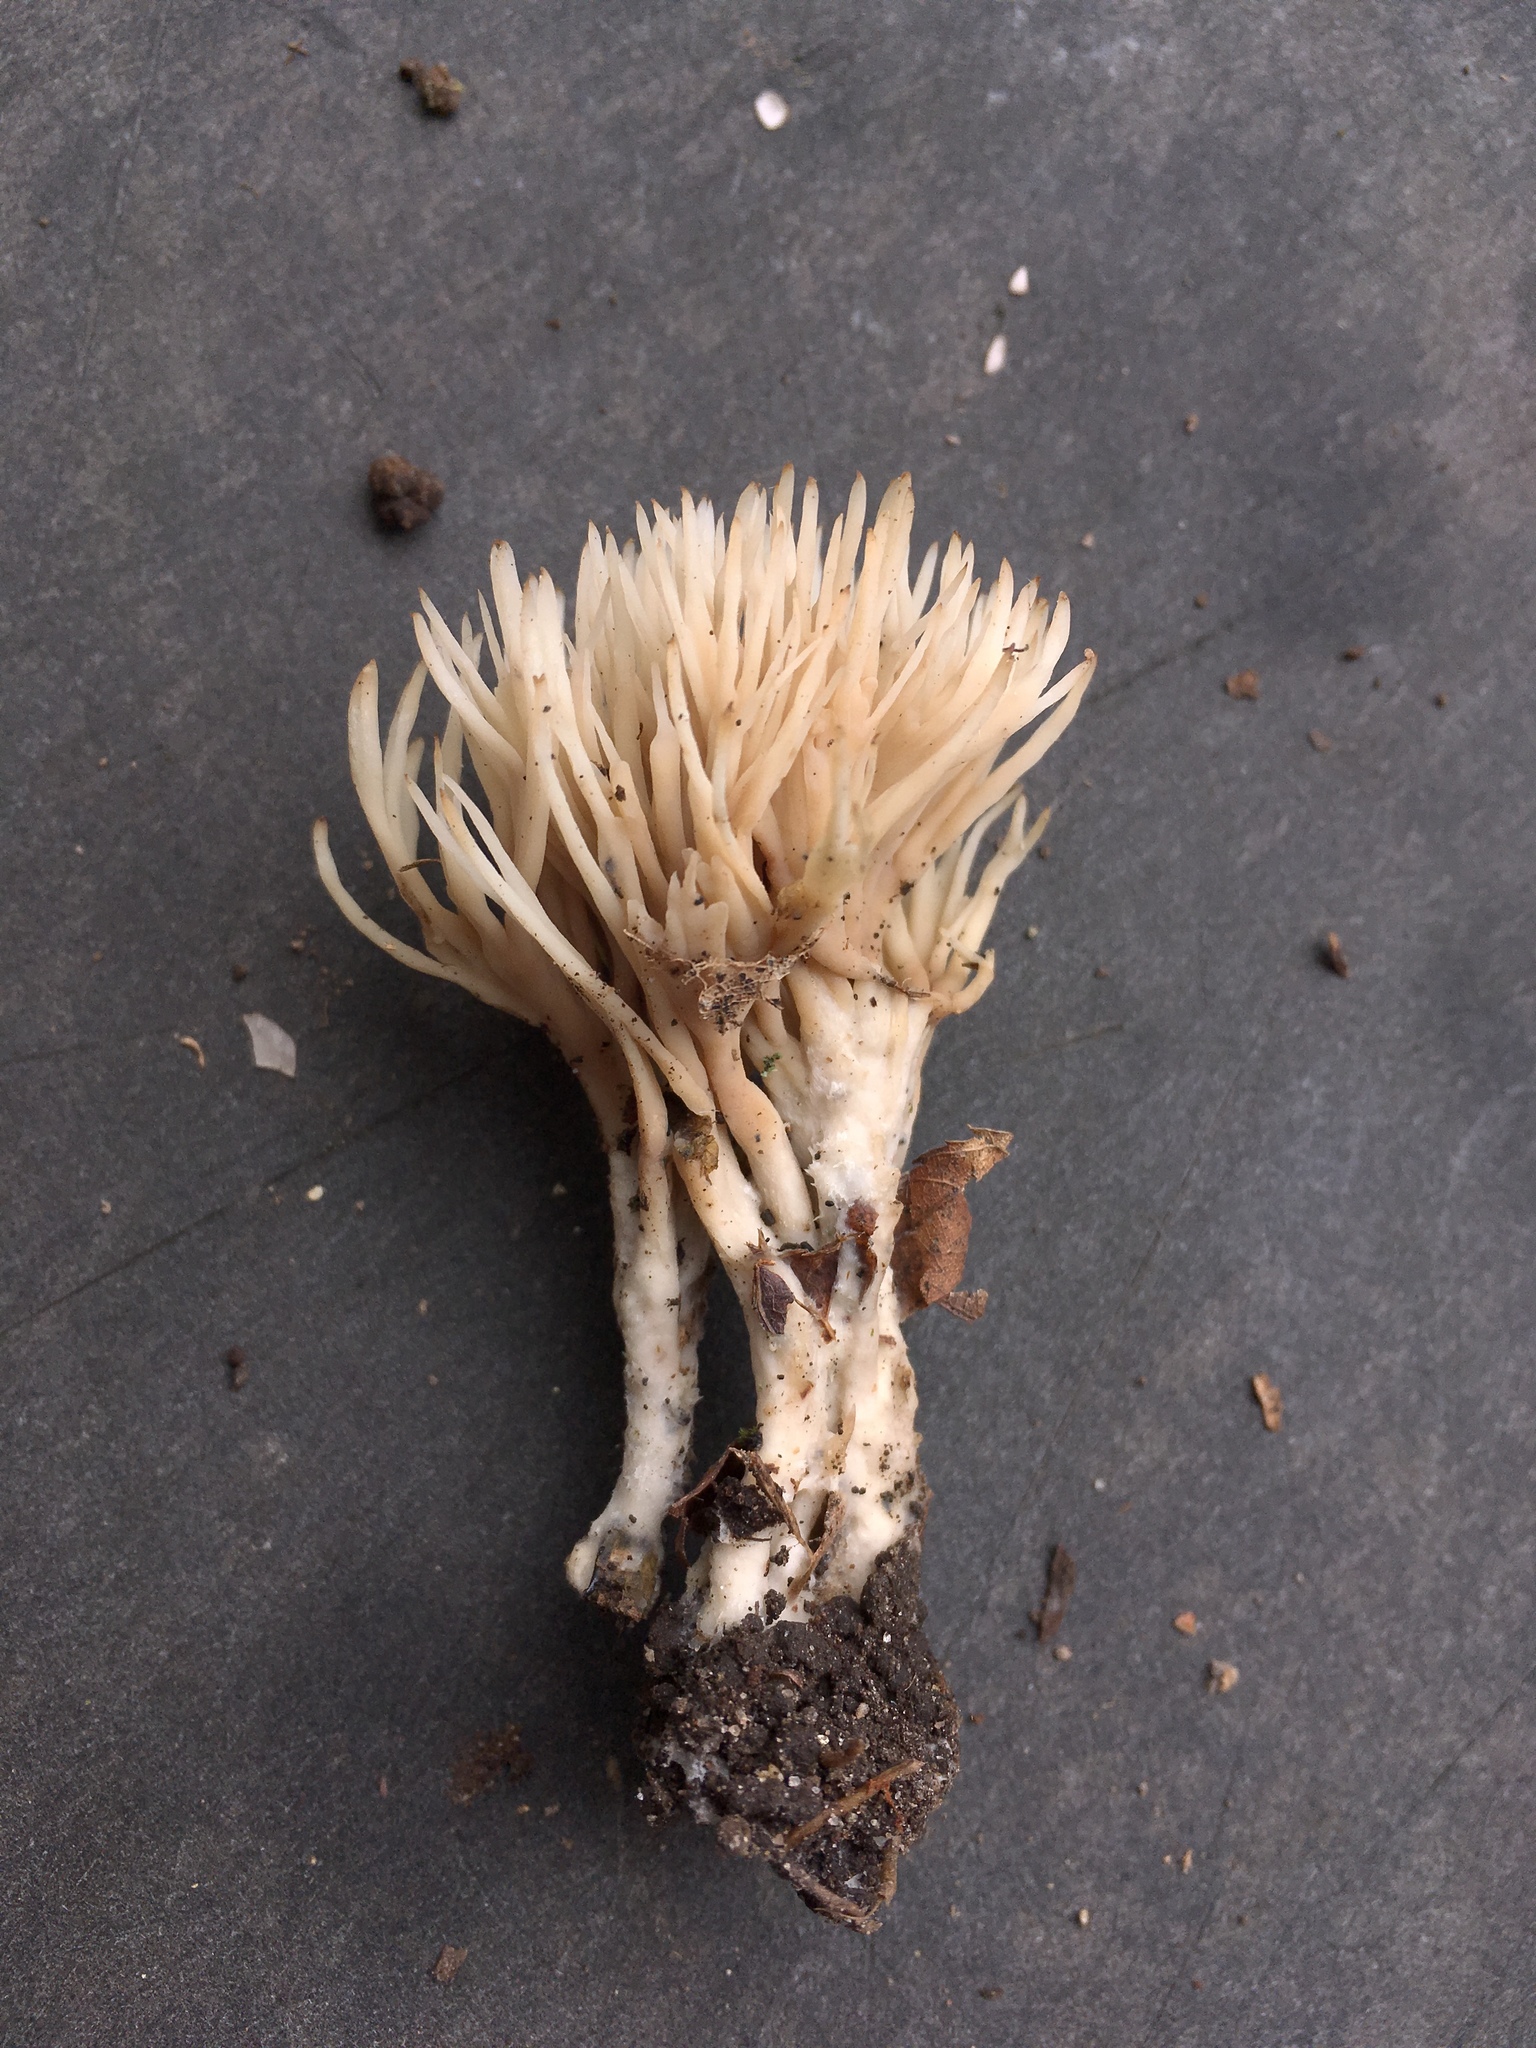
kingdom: Fungi
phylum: Basidiomycota
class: Agaricomycetes
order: Tremellodendropsidales
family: Tremellodendropsidaceae
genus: Tremellodendropsis
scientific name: Tremellodendropsis tuberosa
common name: Ashen coral
